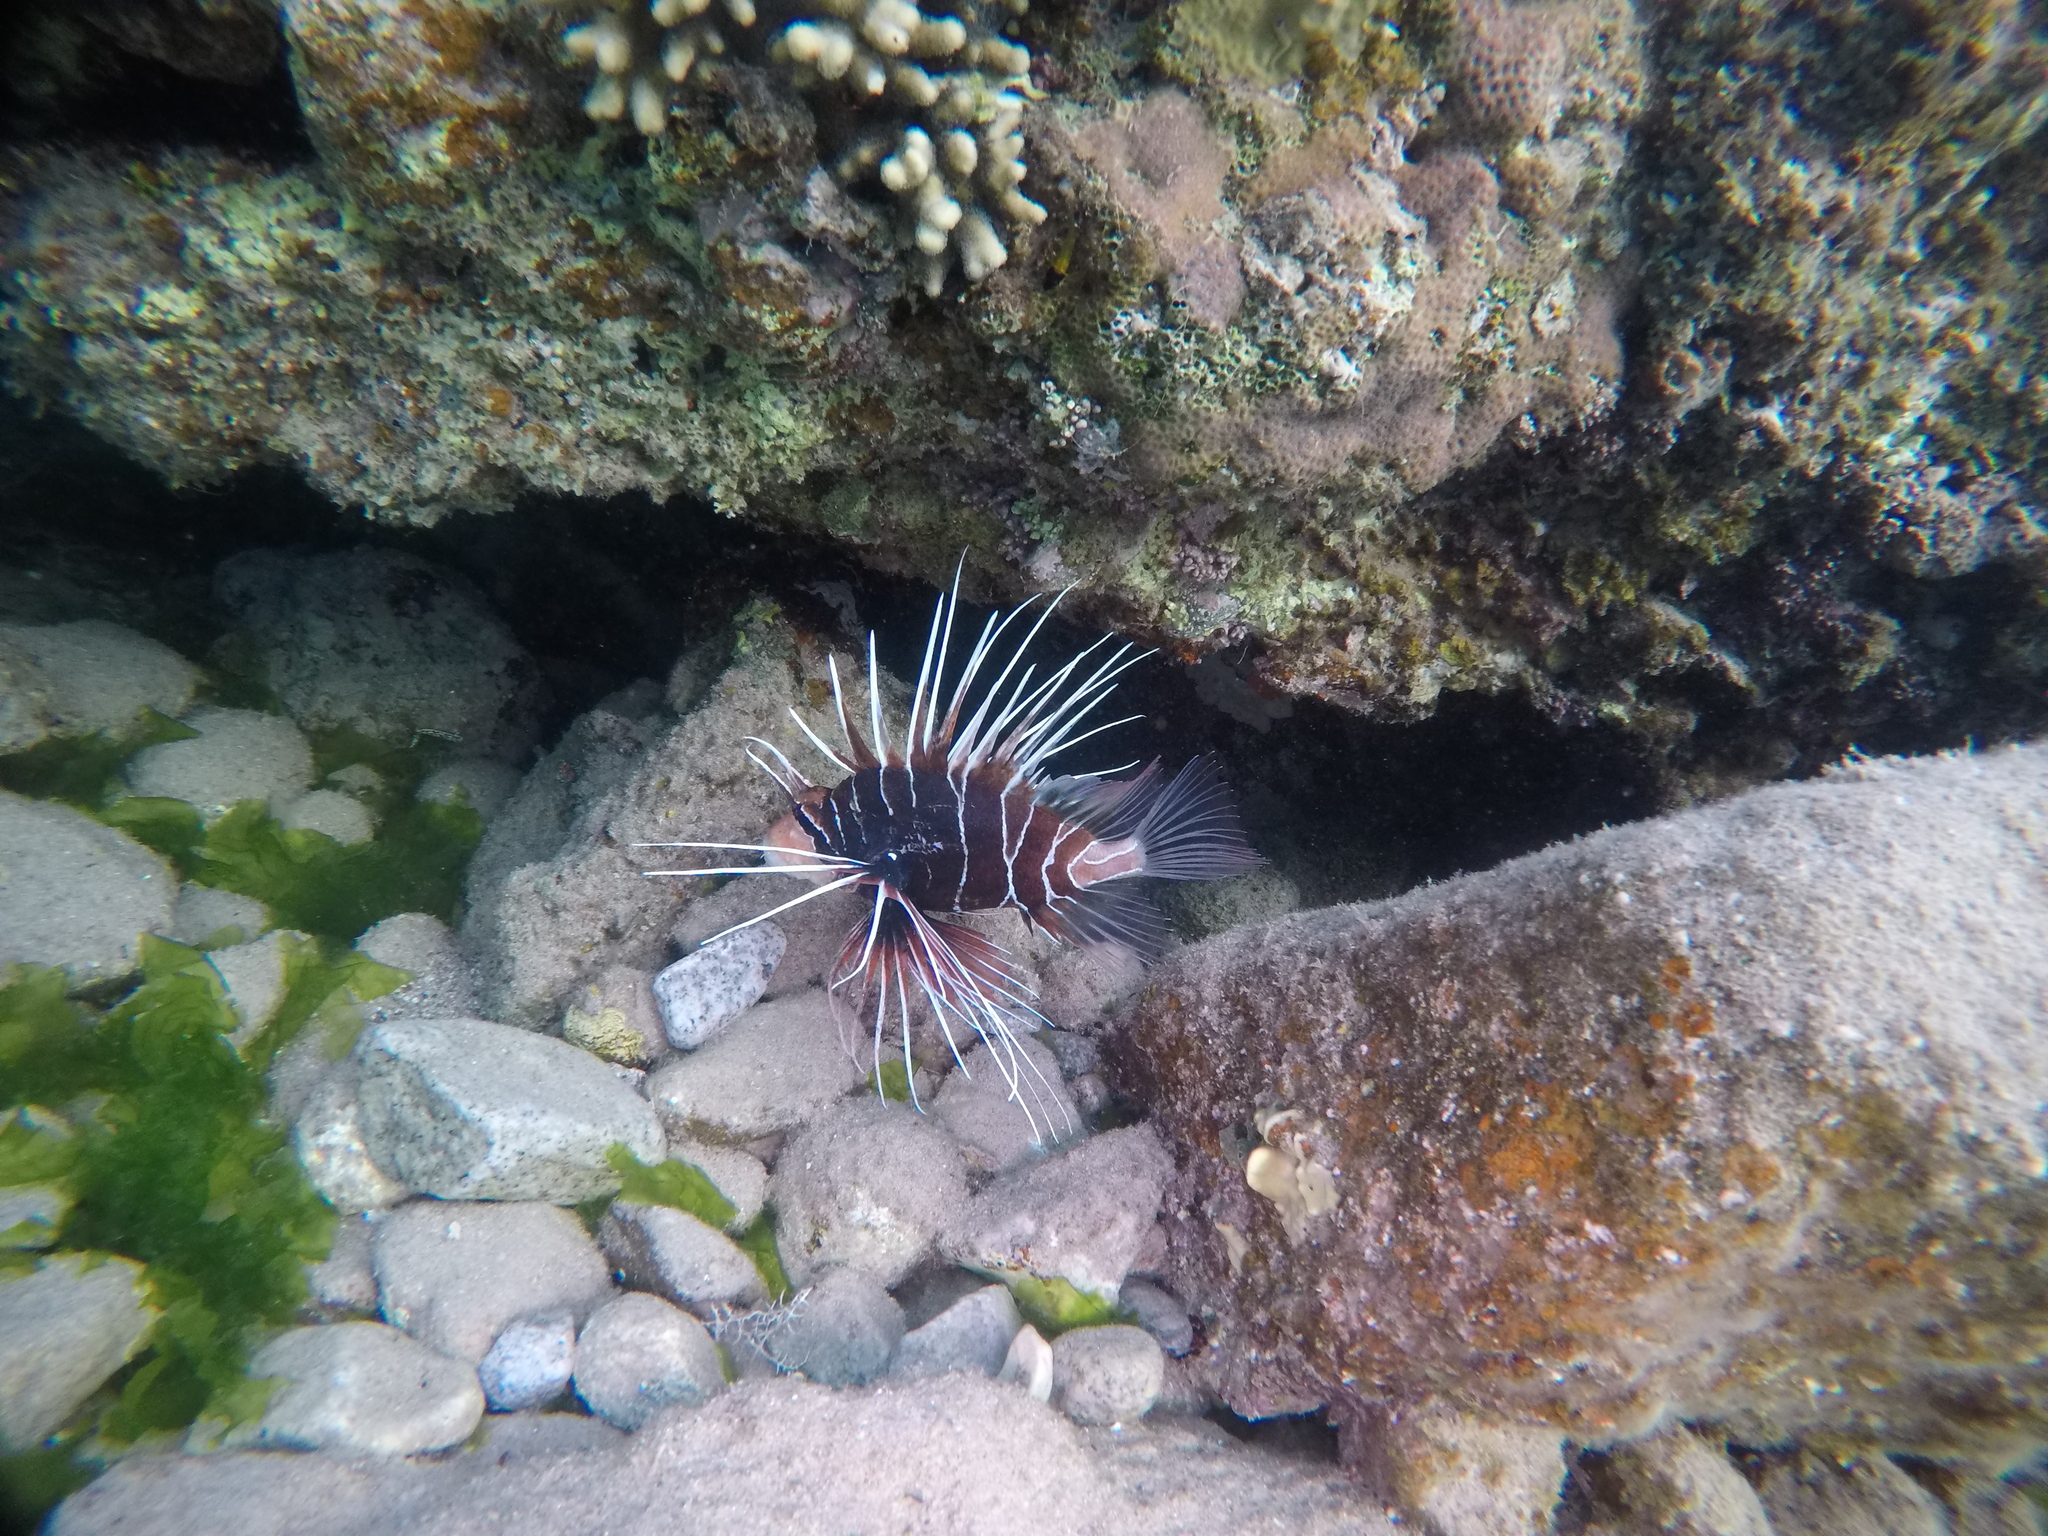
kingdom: Animalia
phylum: Chordata
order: Scorpaeniformes
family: Scorpaenidae
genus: Pterois
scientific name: Pterois cincta
